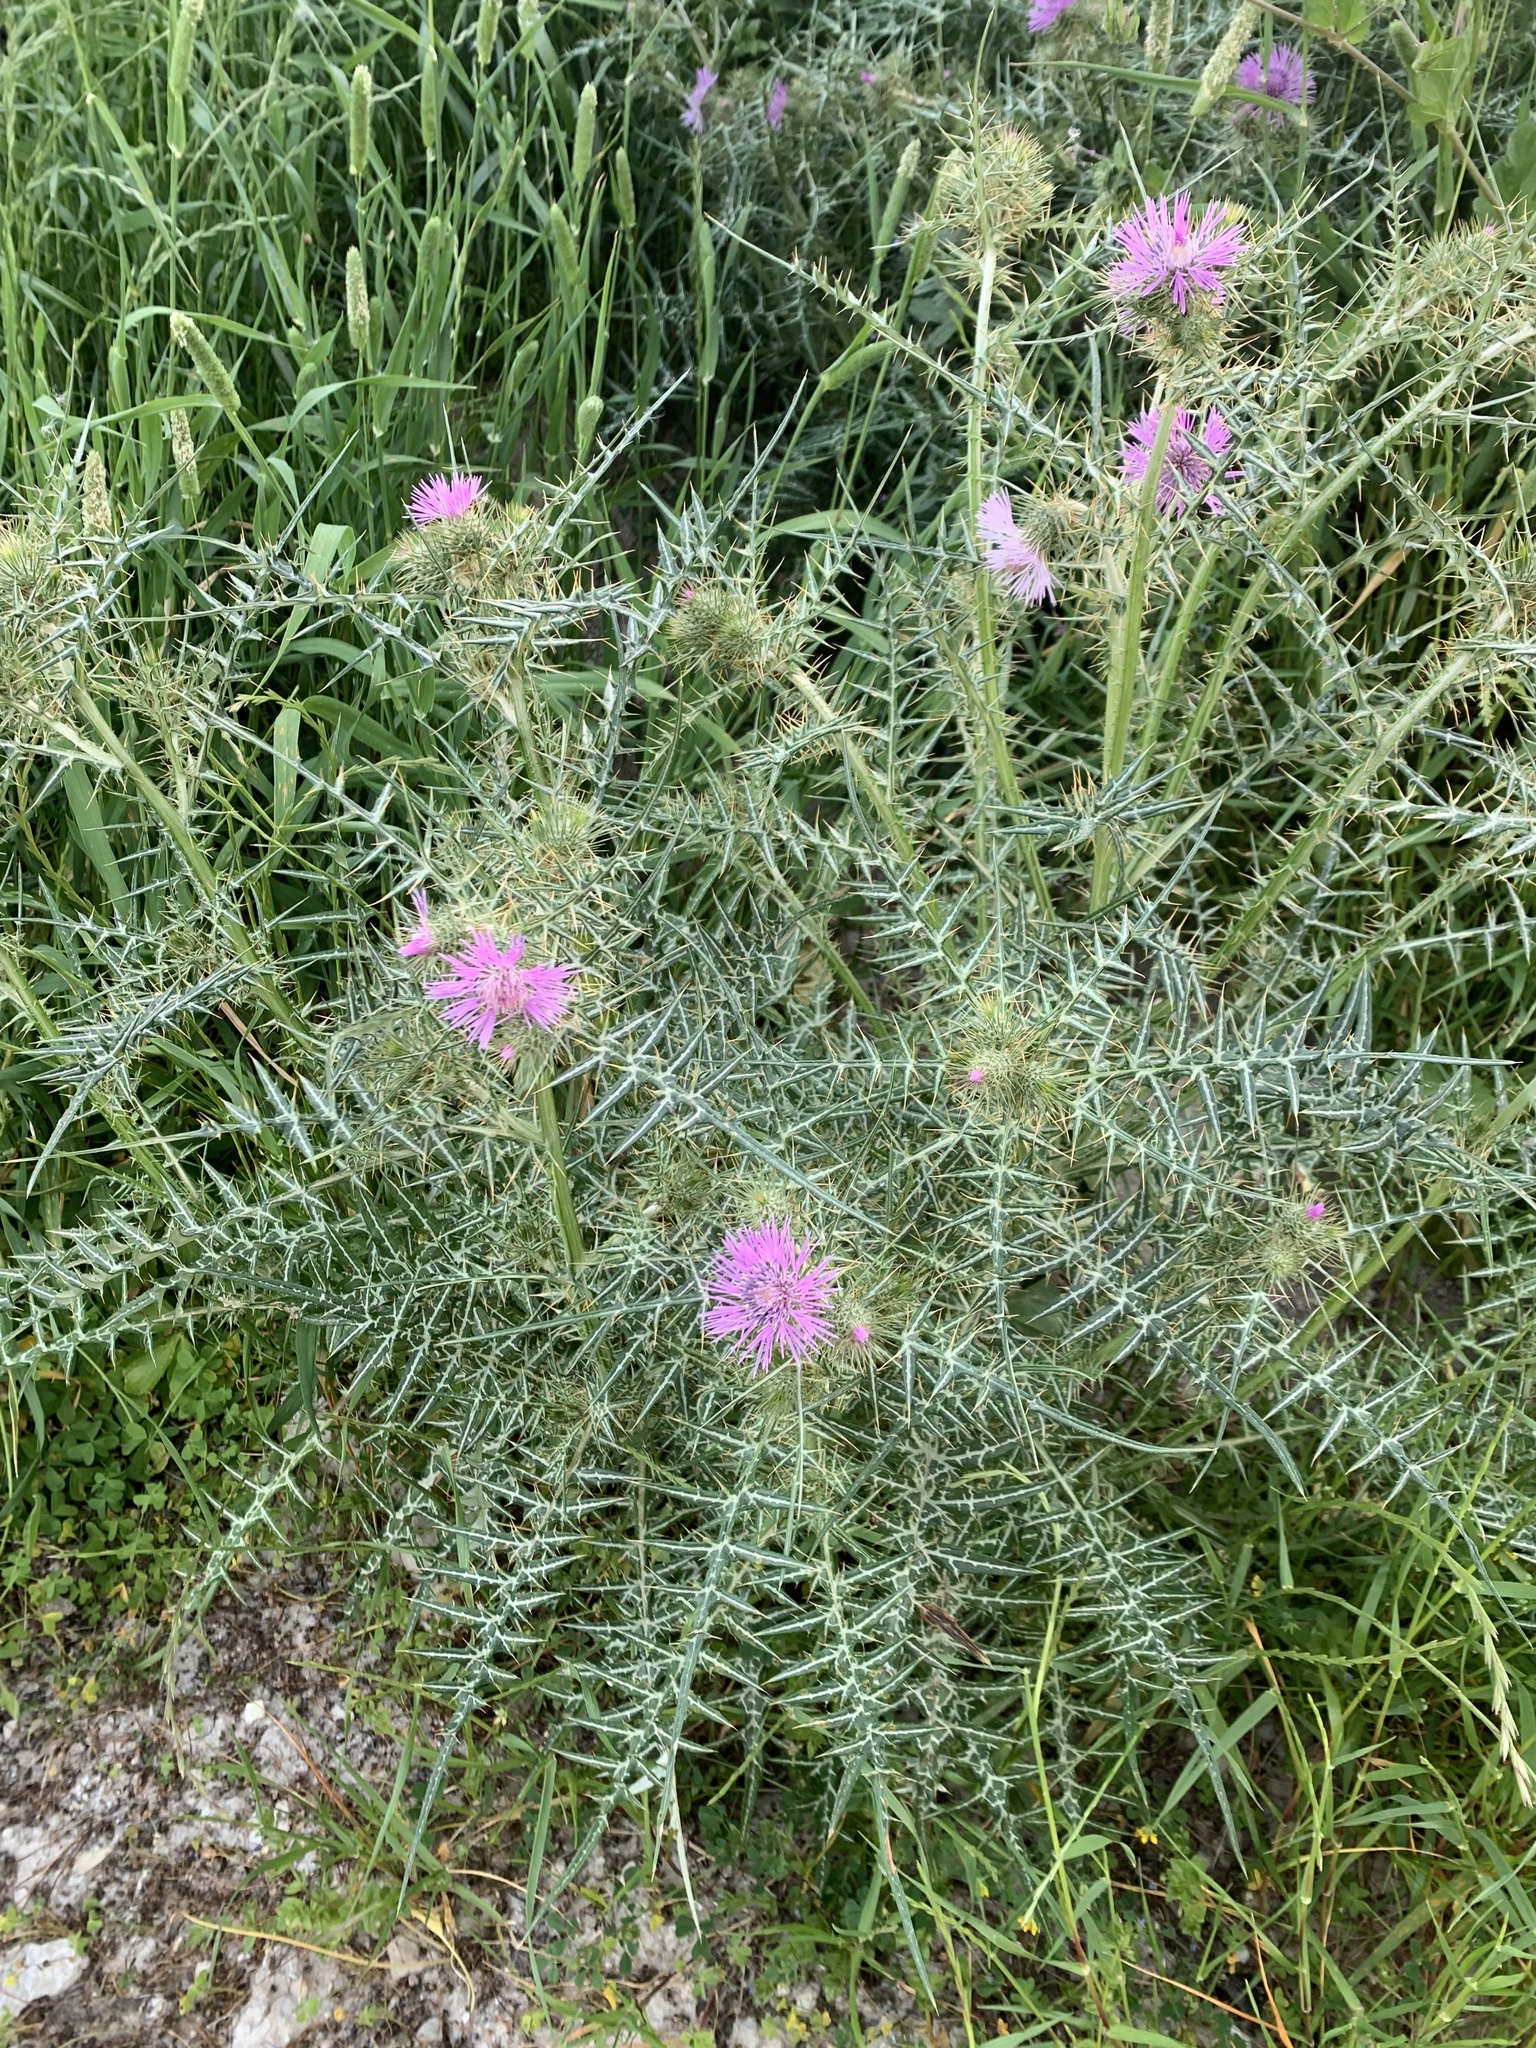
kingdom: Plantae
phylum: Tracheophyta
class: Magnoliopsida
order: Asterales
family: Asteraceae
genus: Galactites
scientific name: Galactites tomentosa
